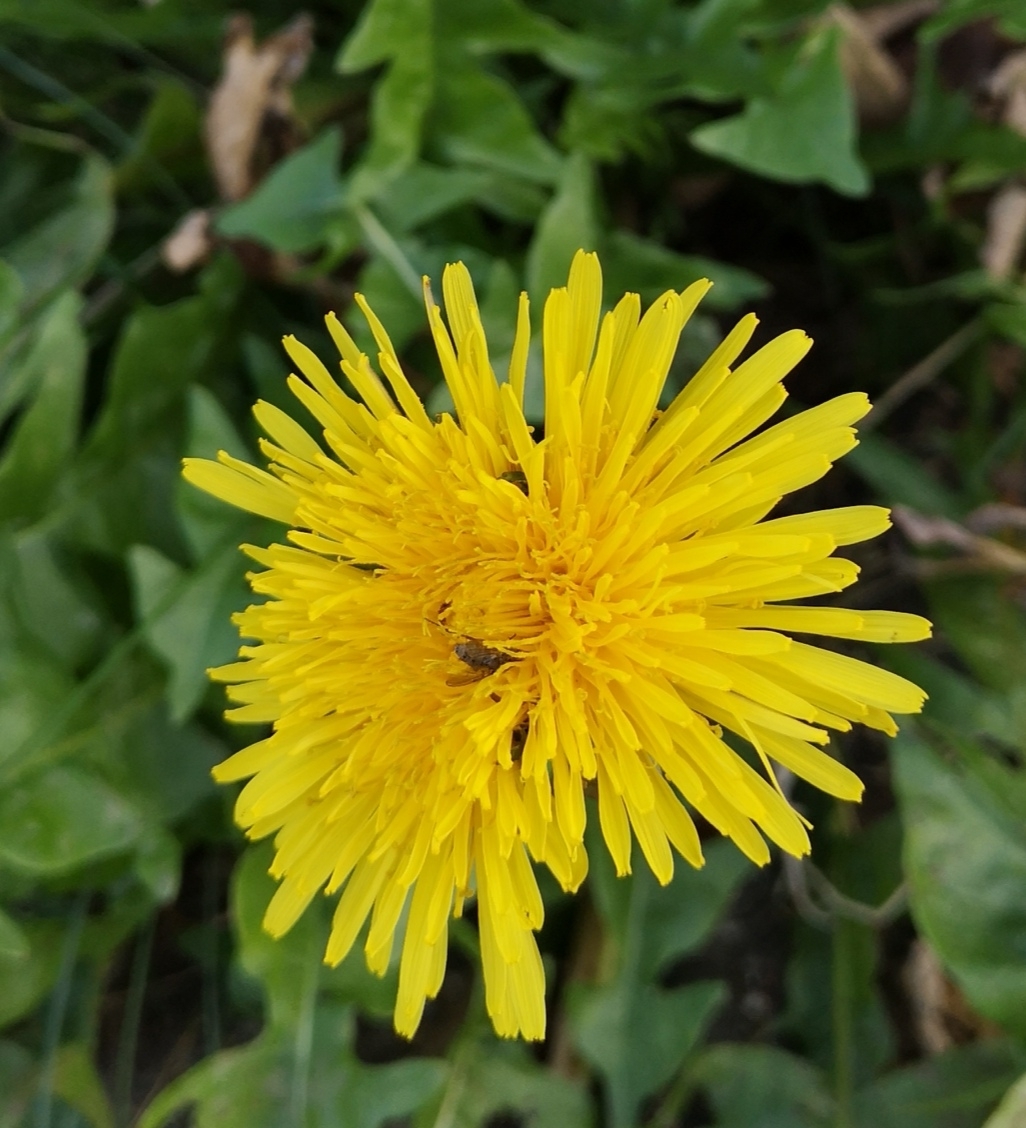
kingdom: Plantae
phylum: Tracheophyta
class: Magnoliopsida
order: Asterales
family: Asteraceae
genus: Taraxacum
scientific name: Taraxacum
